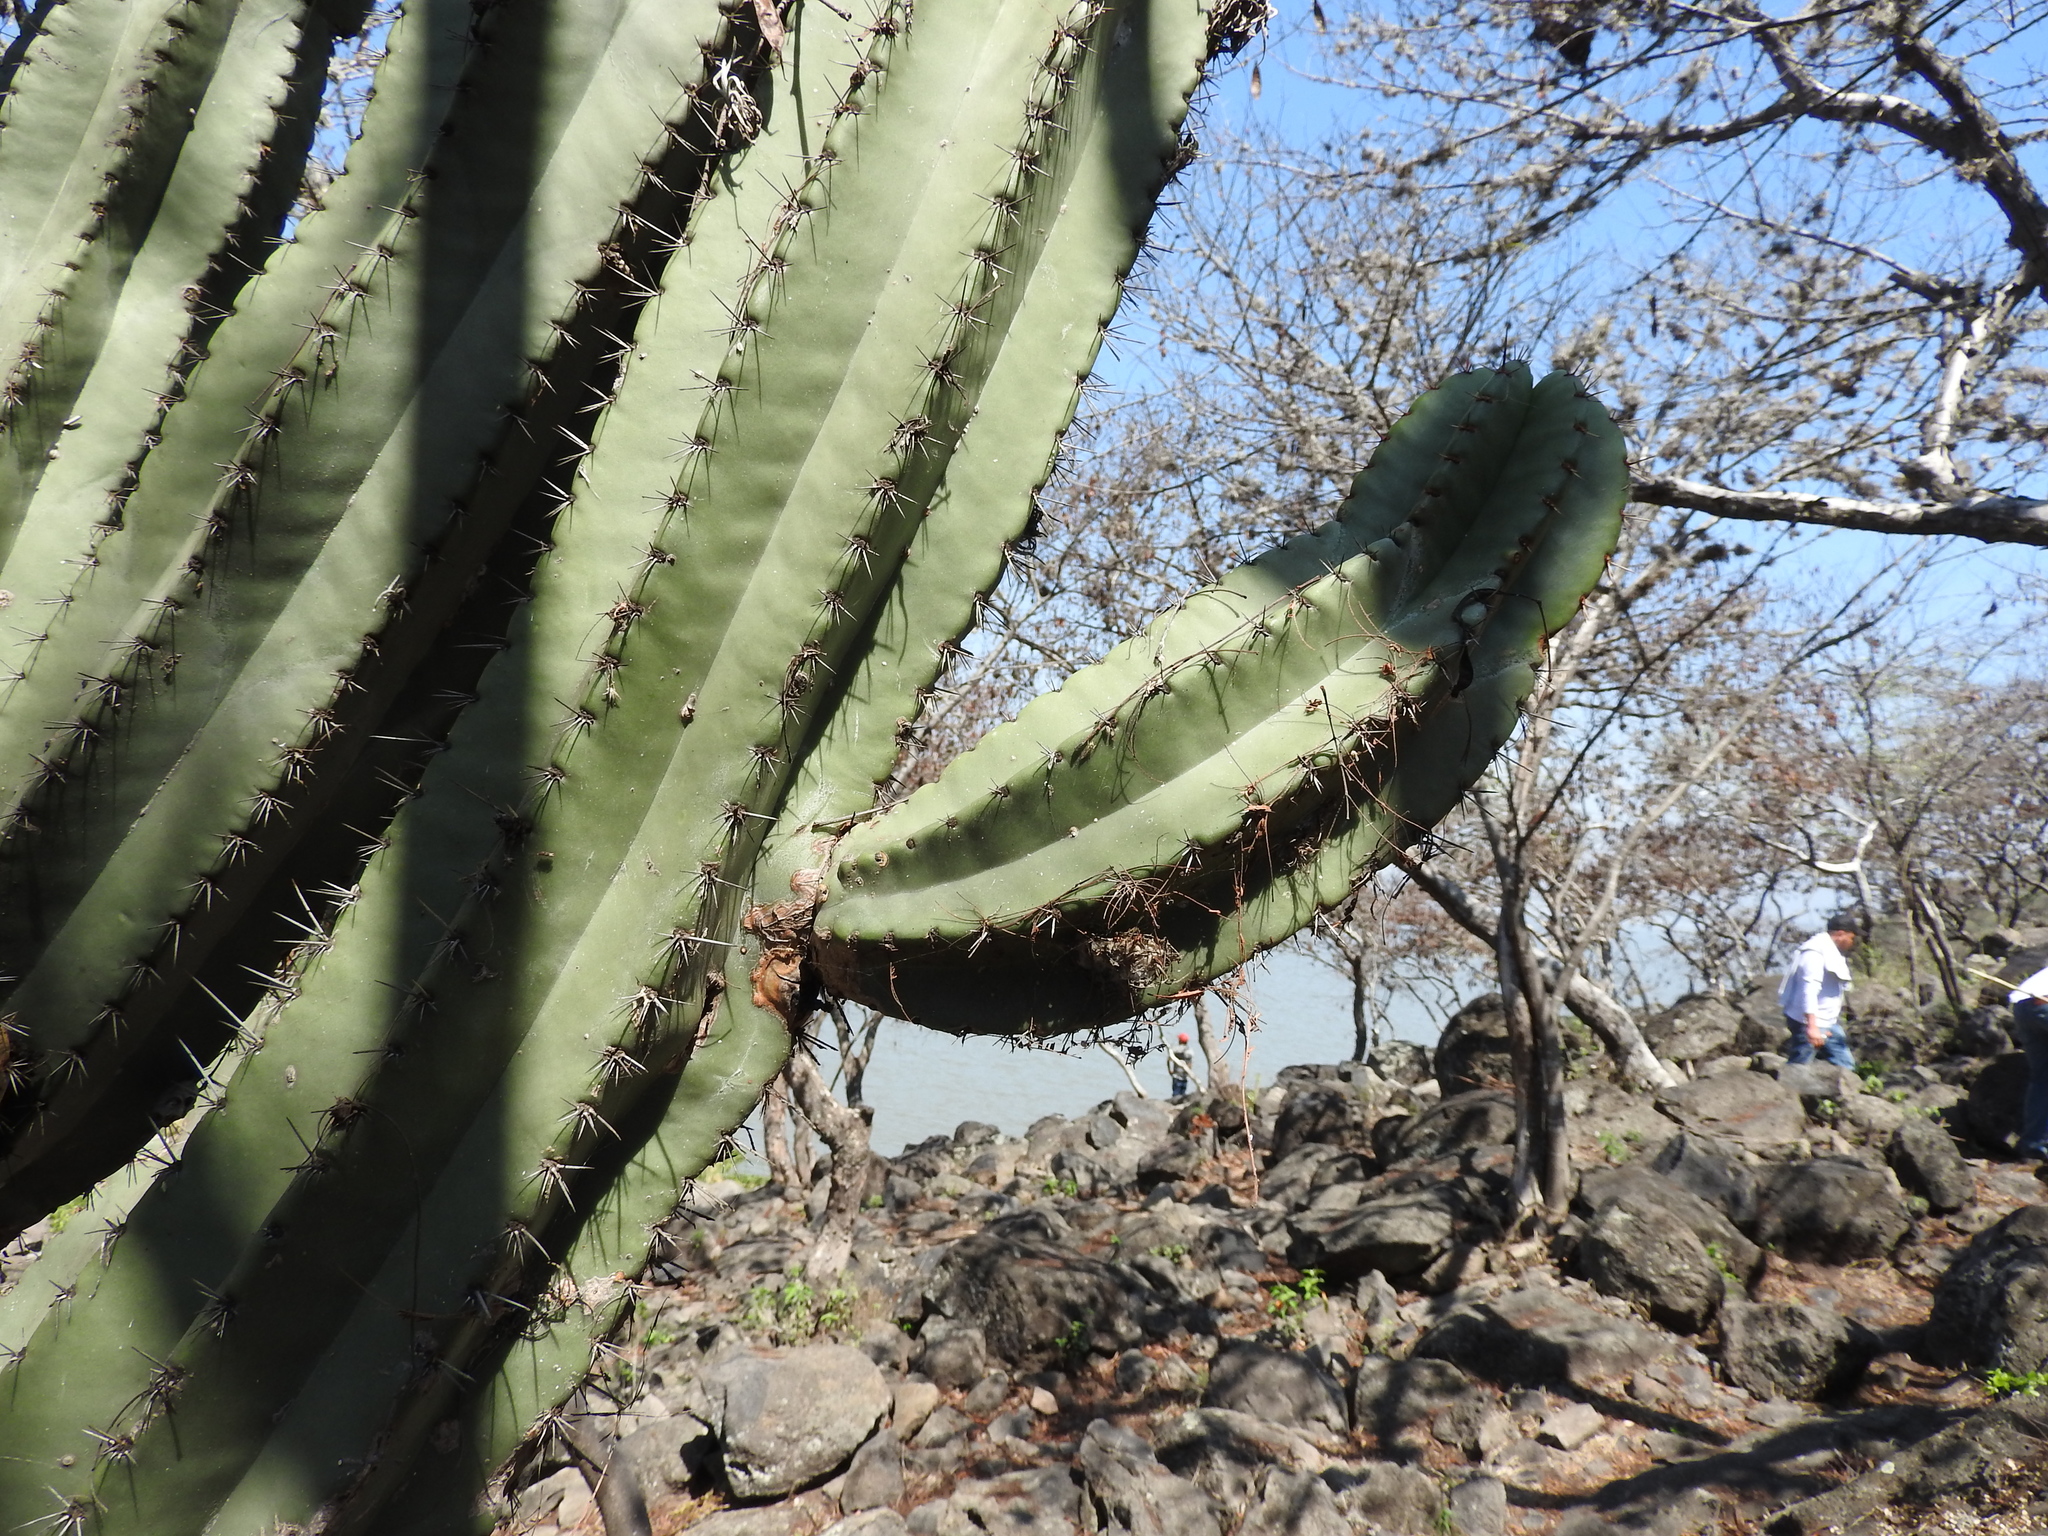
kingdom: Plantae
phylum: Tracheophyta
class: Magnoliopsida
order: Caryophyllales
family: Cactaceae
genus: Stenocereus
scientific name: Stenocereus queretaroensis
